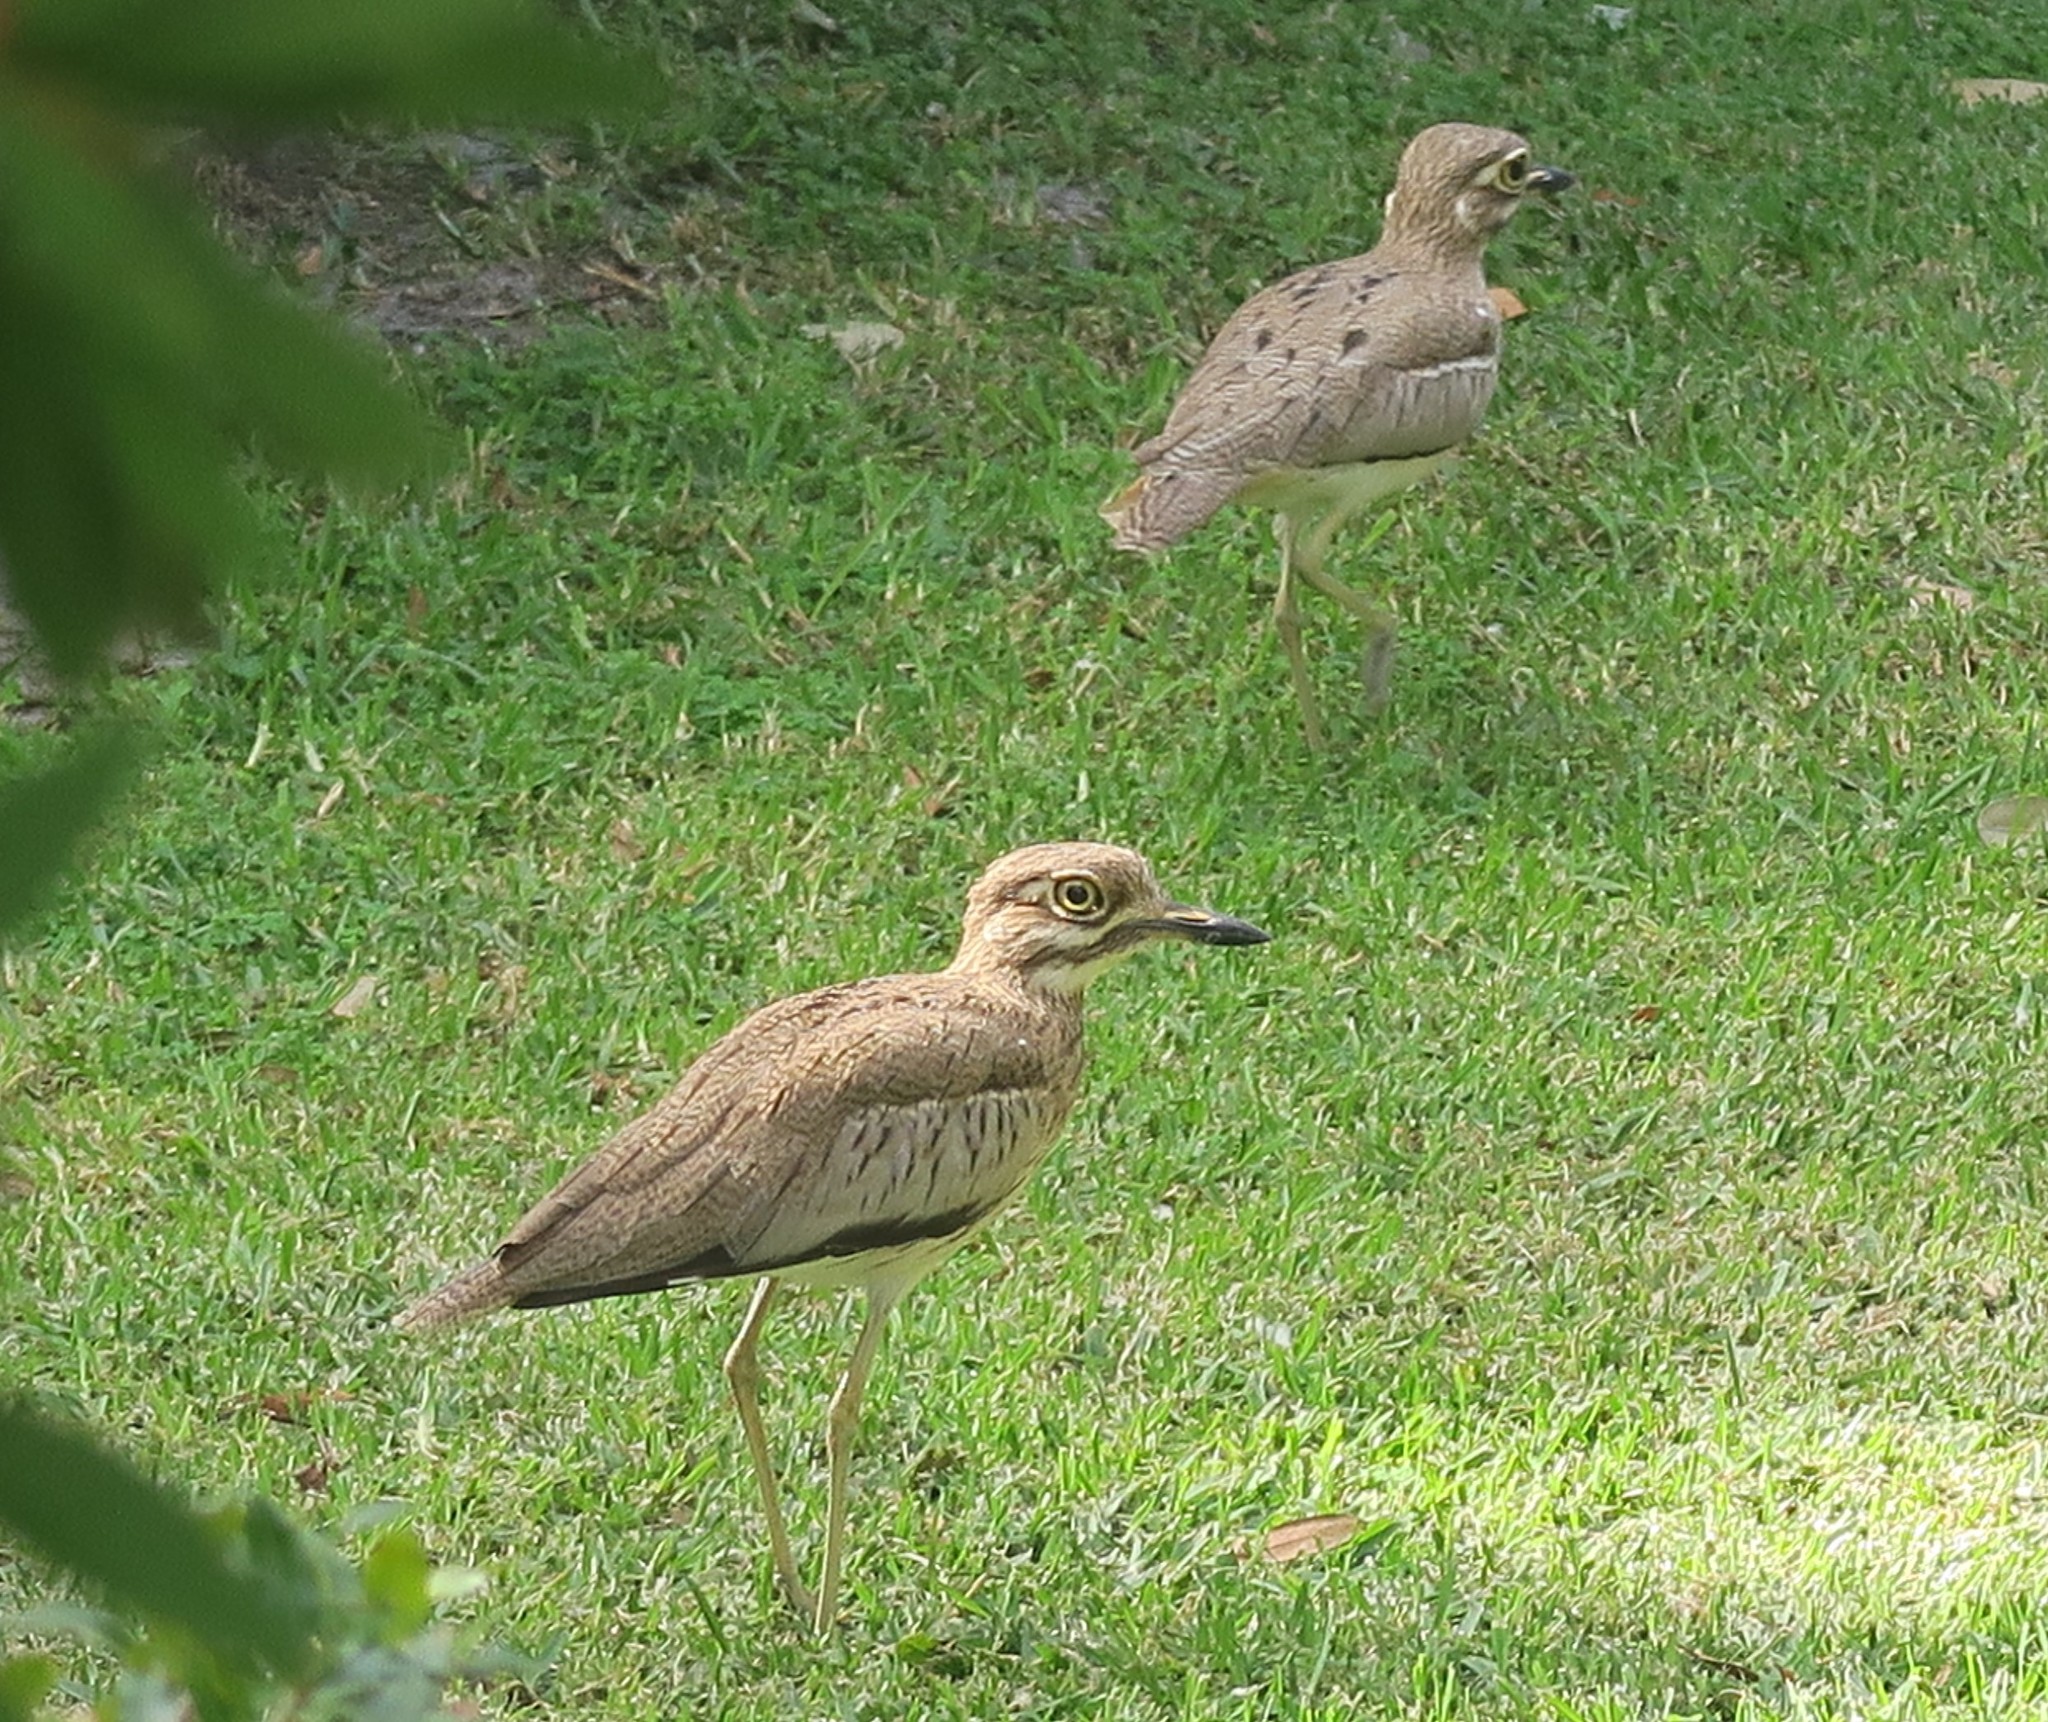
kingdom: Animalia
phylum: Chordata
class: Aves
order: Charadriiformes
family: Burhinidae
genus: Burhinus
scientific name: Burhinus vermiculatus
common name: Water thick-knee
